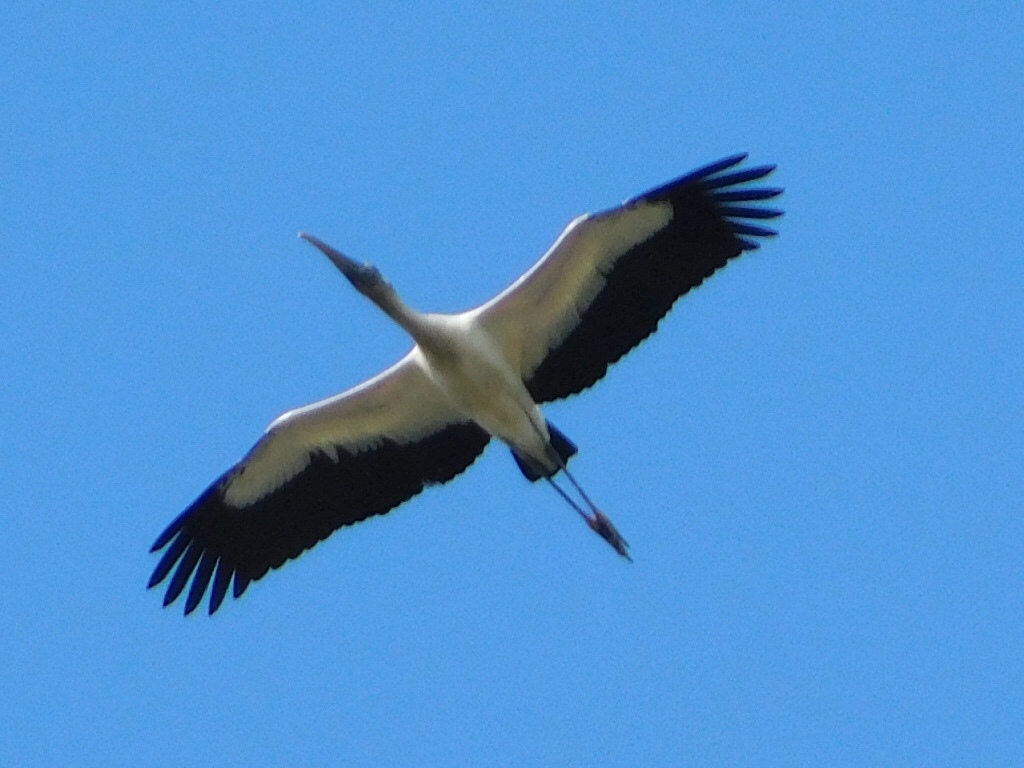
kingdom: Animalia
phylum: Chordata
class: Aves
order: Ciconiiformes
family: Ciconiidae
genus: Mycteria
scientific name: Mycteria americana
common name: Wood stork
